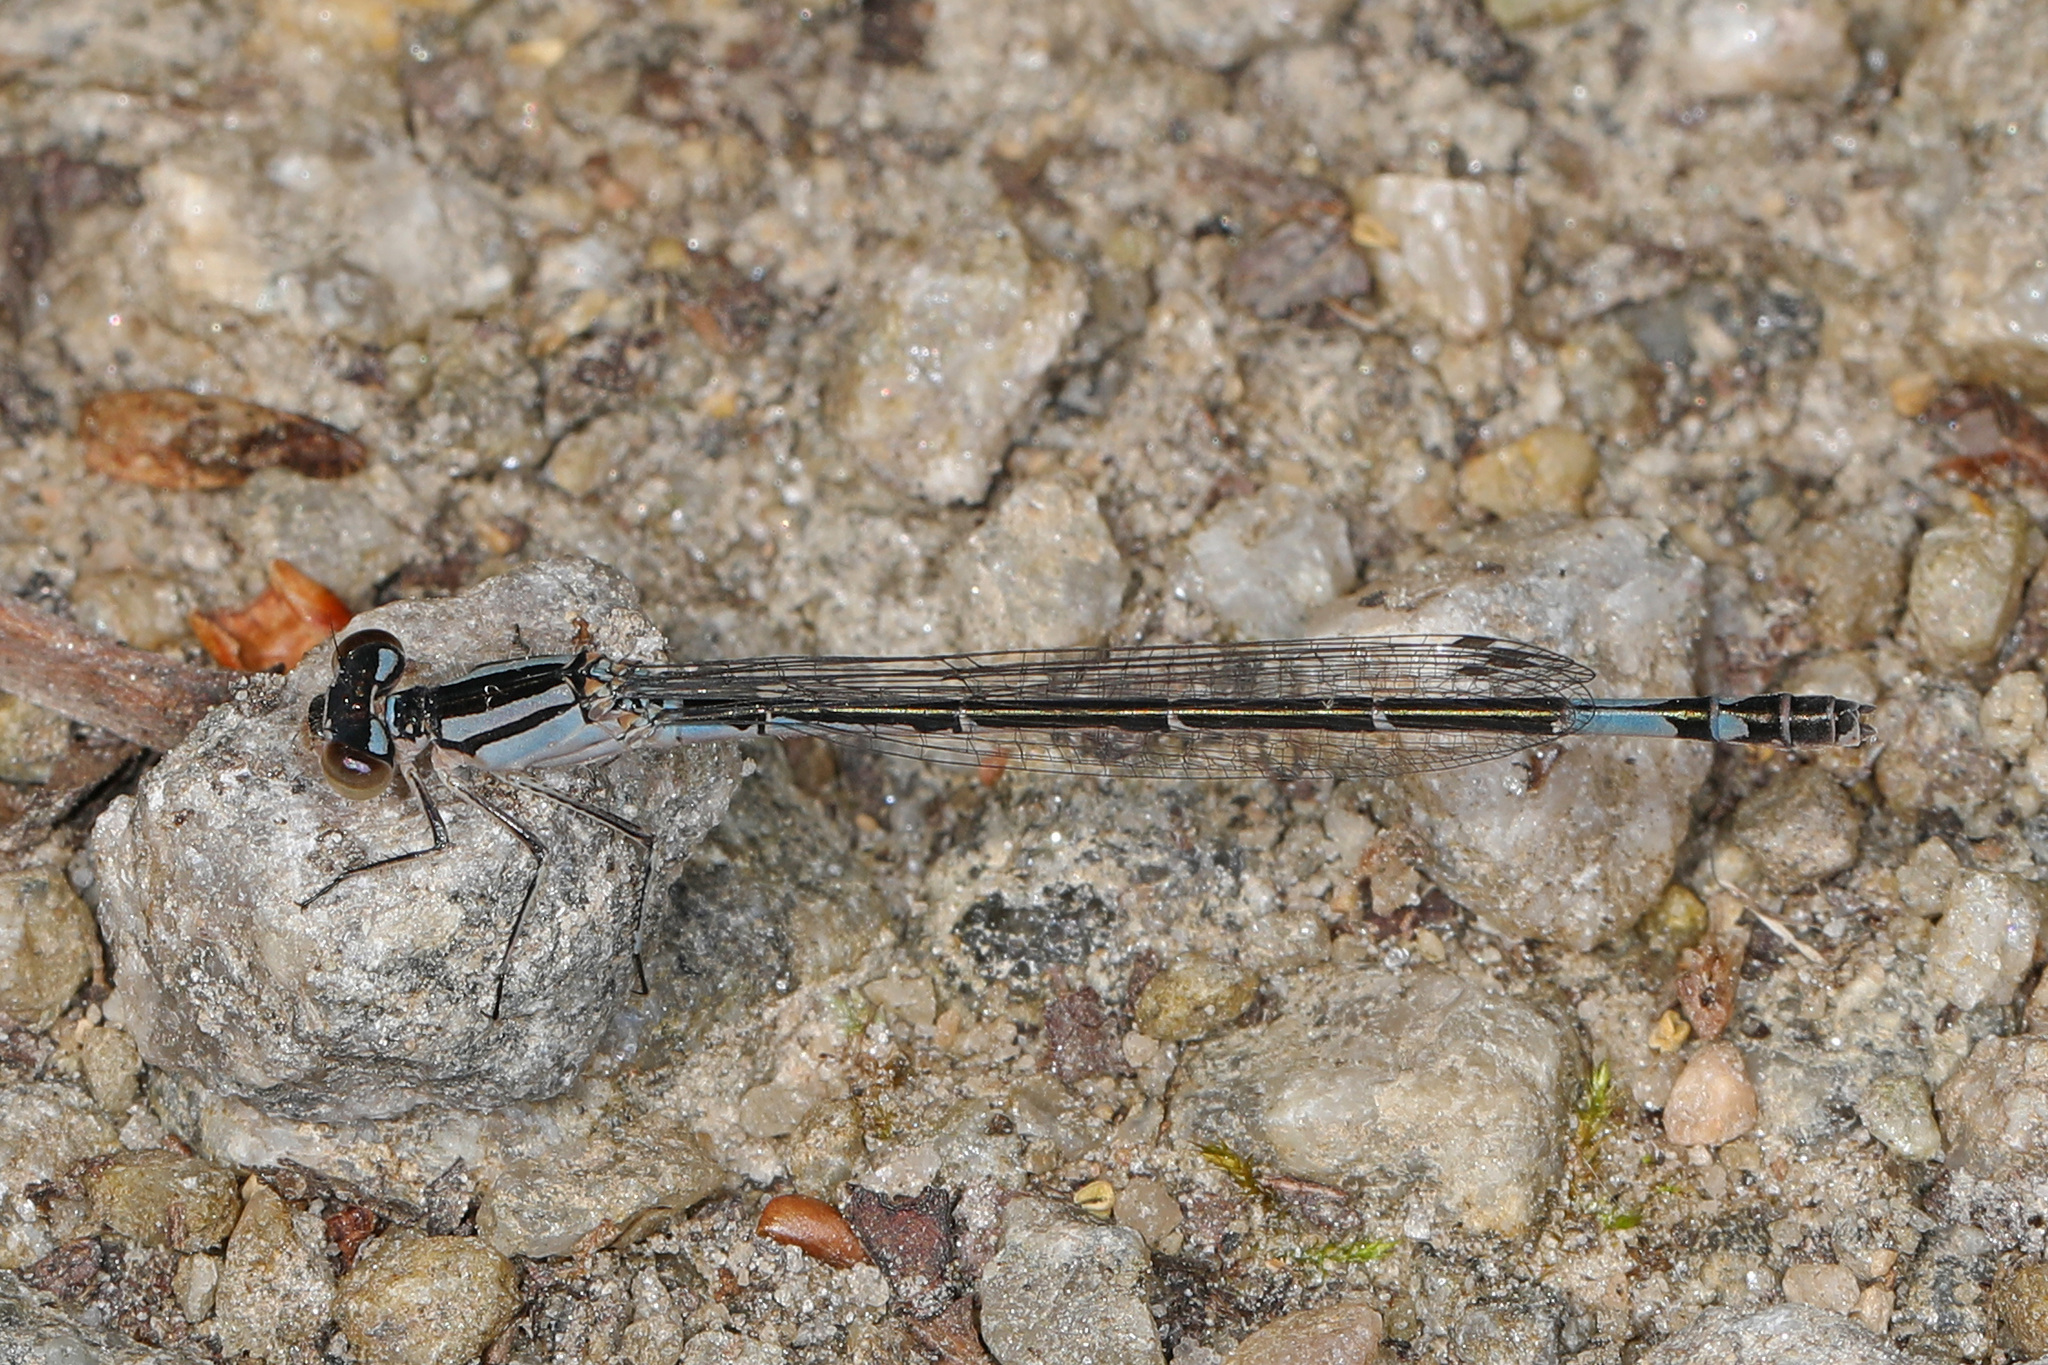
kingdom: Animalia
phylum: Arthropoda
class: Insecta
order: Odonata
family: Coenagrionidae
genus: Enallagma
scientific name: Enallagma aspersum
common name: Azure bluet
